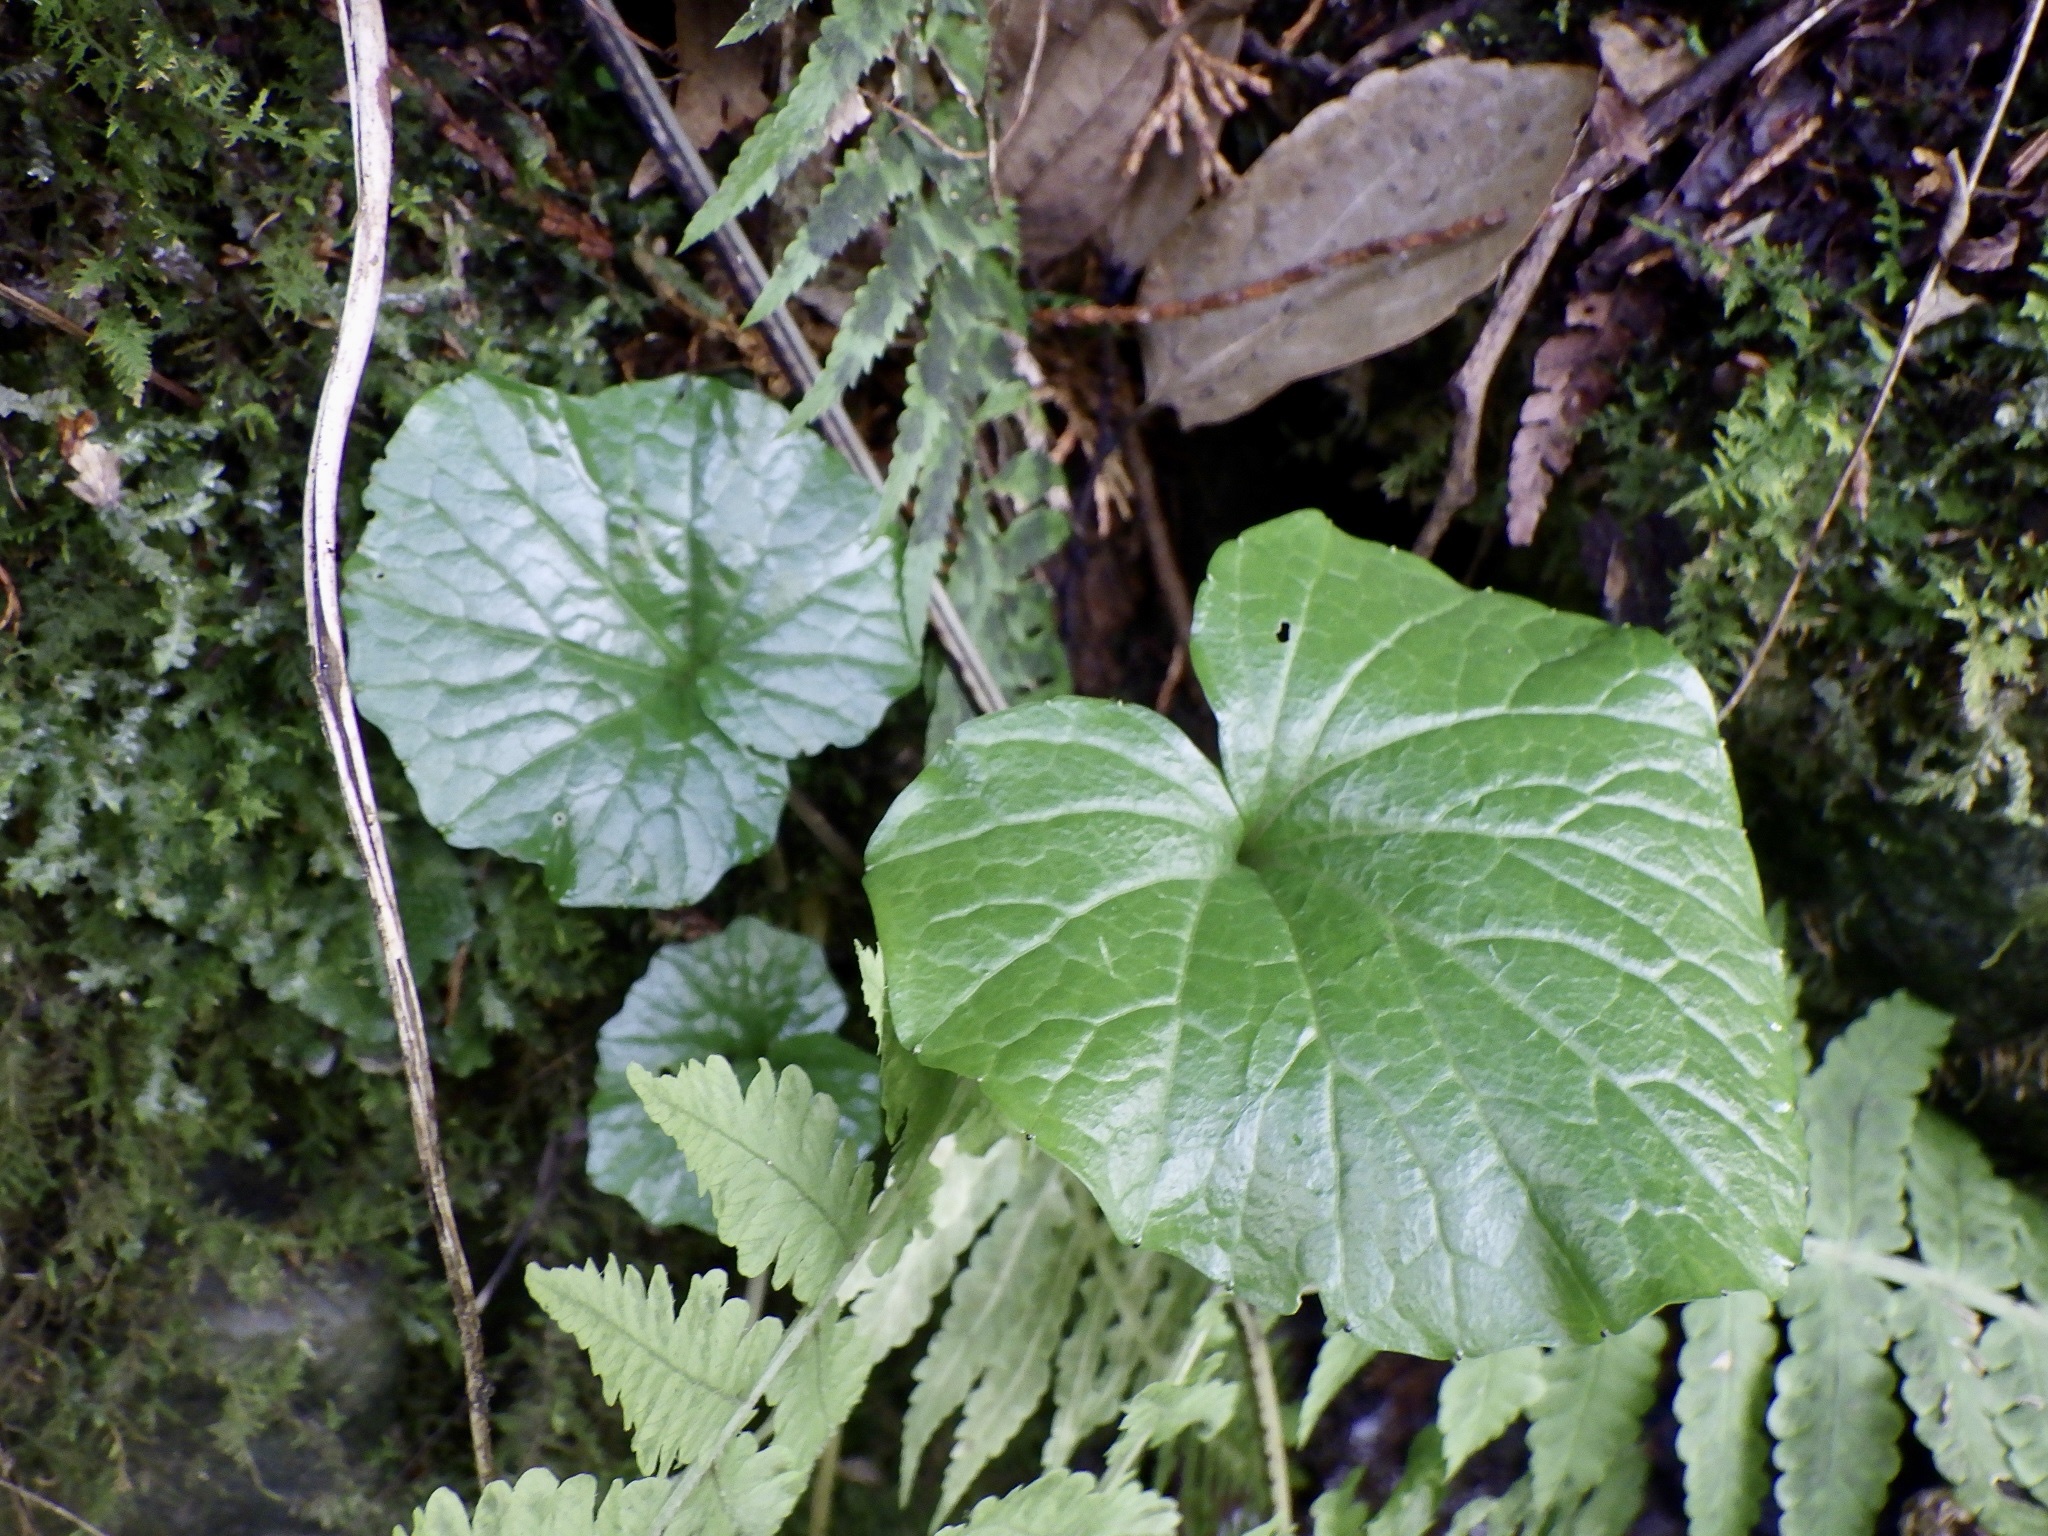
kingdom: Plantae
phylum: Tracheophyta
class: Magnoliopsida
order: Brassicales
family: Brassicaceae
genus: Eutrema
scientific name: Eutrema japonicum
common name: Japanese-horseradish
